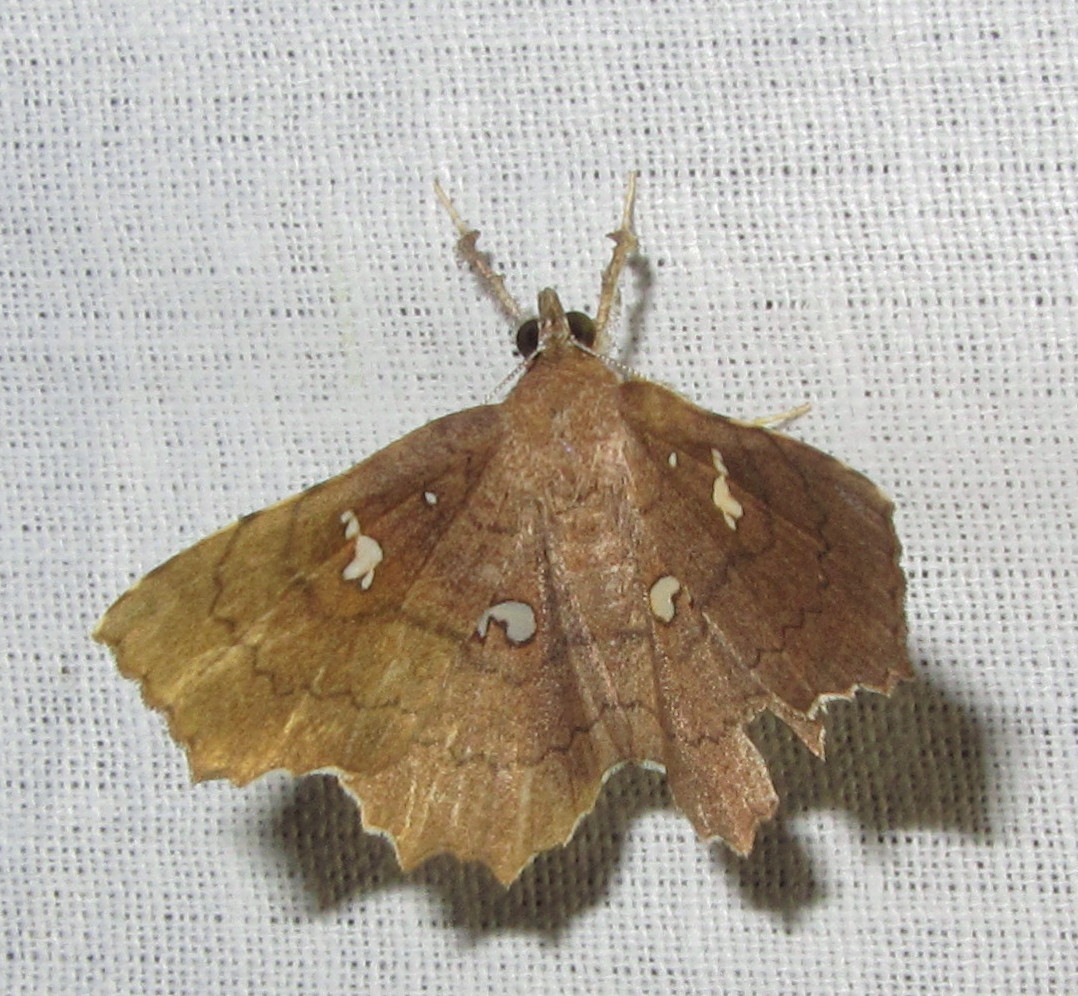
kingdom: Animalia
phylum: Arthropoda
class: Insecta
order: Lepidoptera
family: Erebidae
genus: Egnasia
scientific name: Egnasia ephyrodalis
